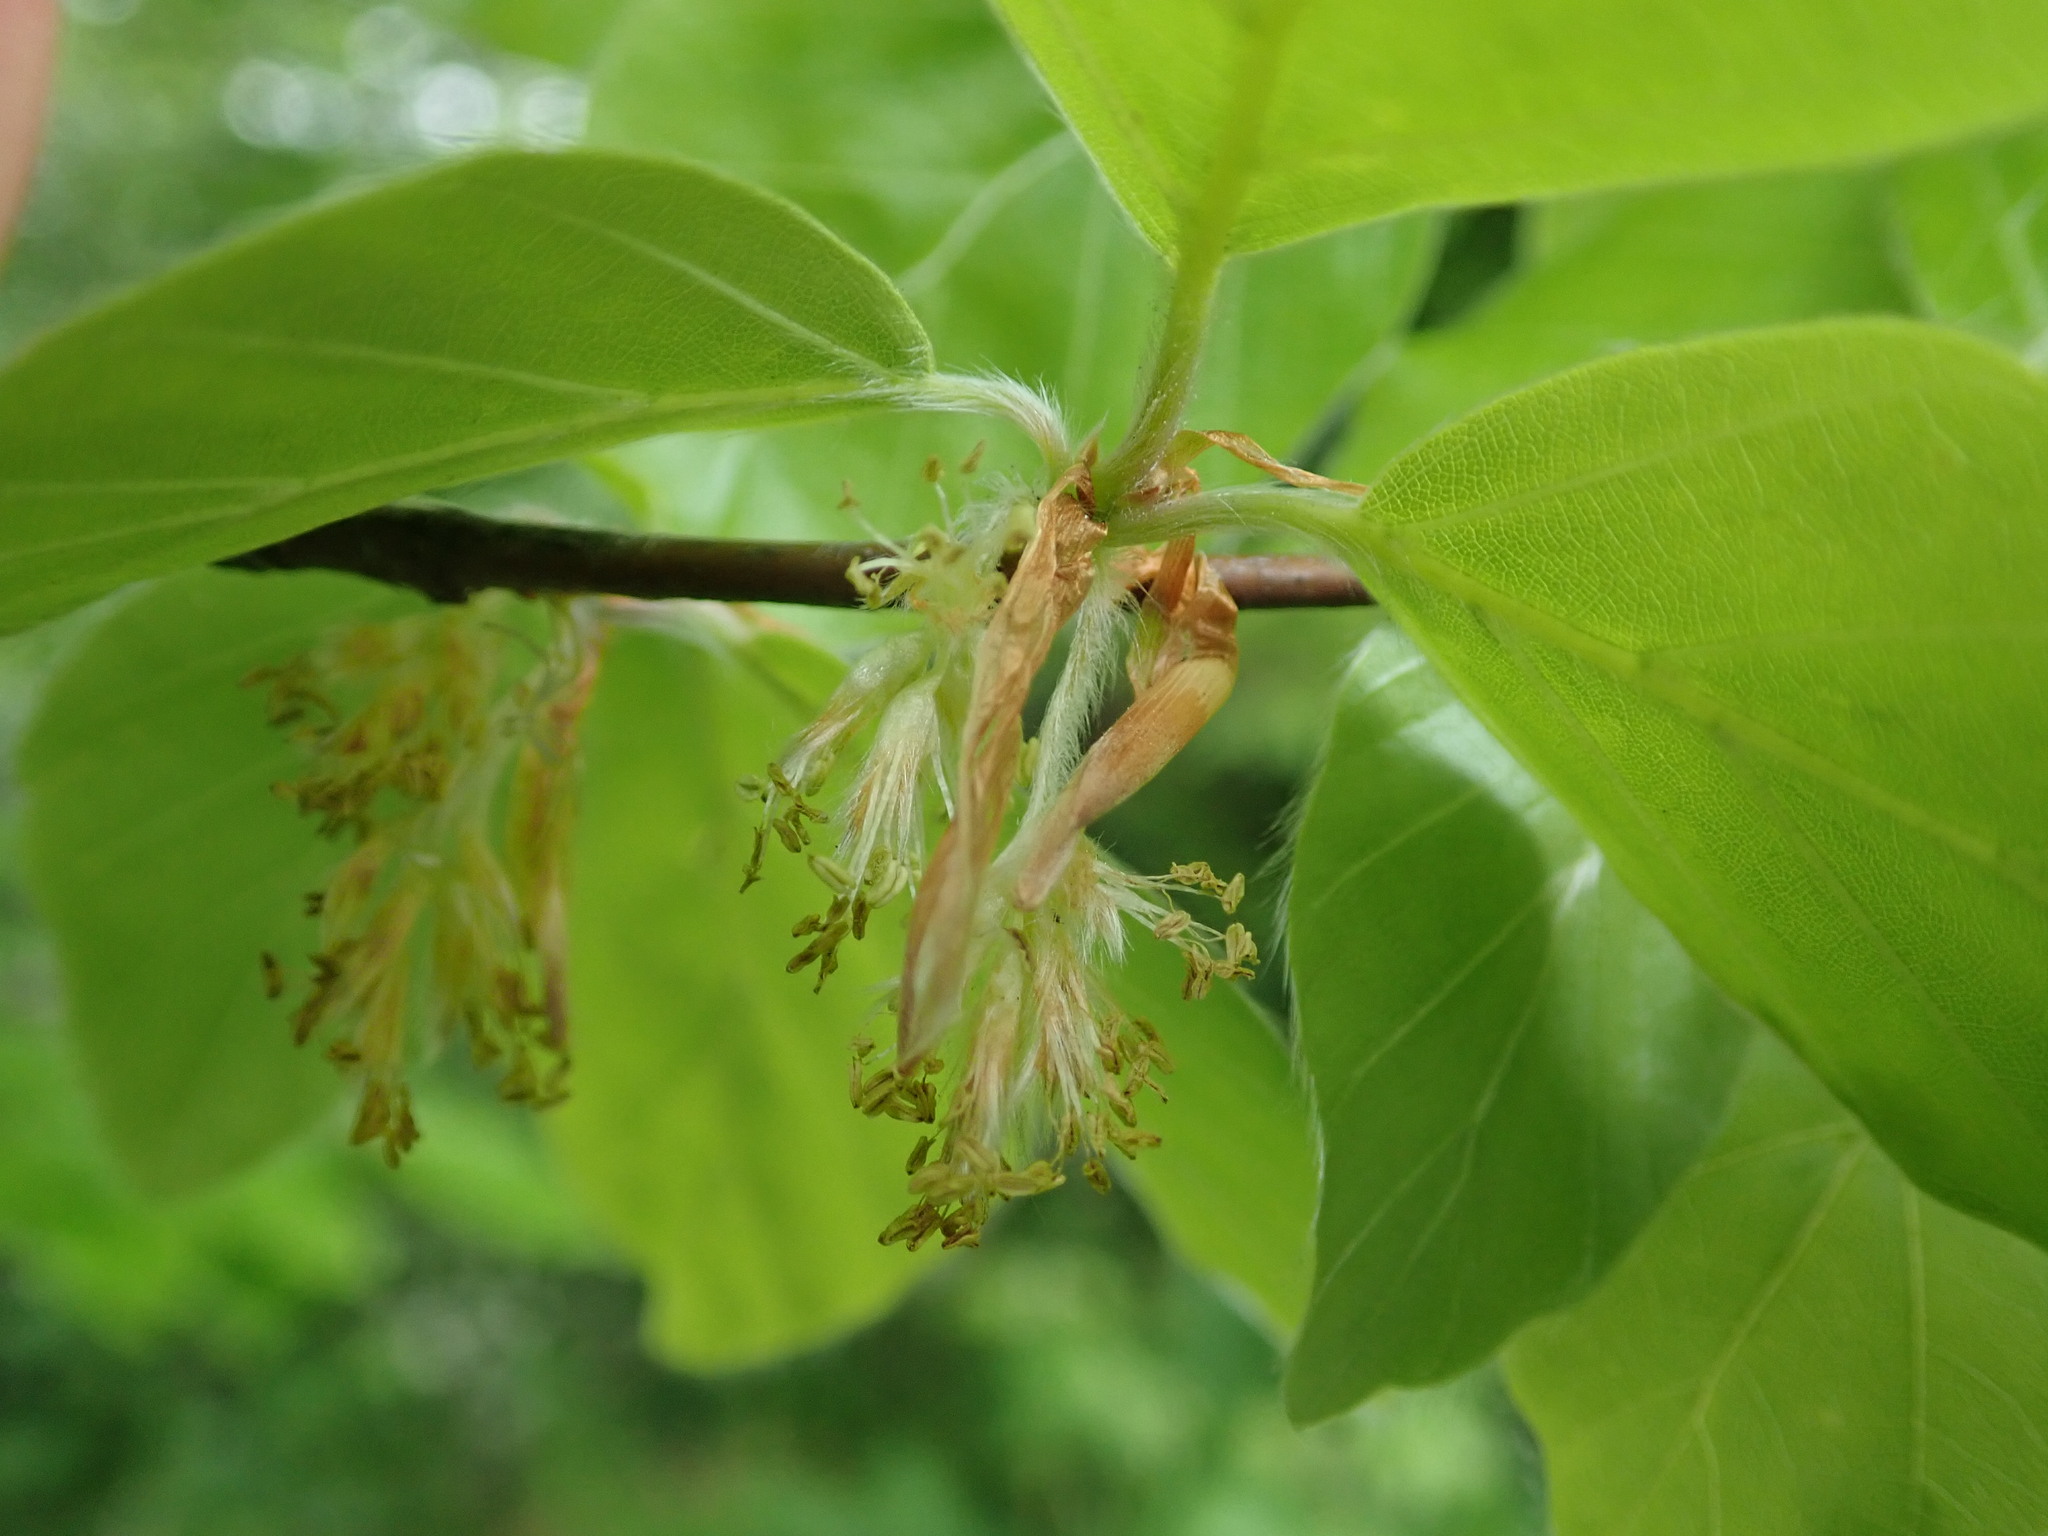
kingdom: Plantae
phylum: Tracheophyta
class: Magnoliopsida
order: Fagales
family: Fagaceae
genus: Fagus
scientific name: Fagus sylvatica
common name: Beech
